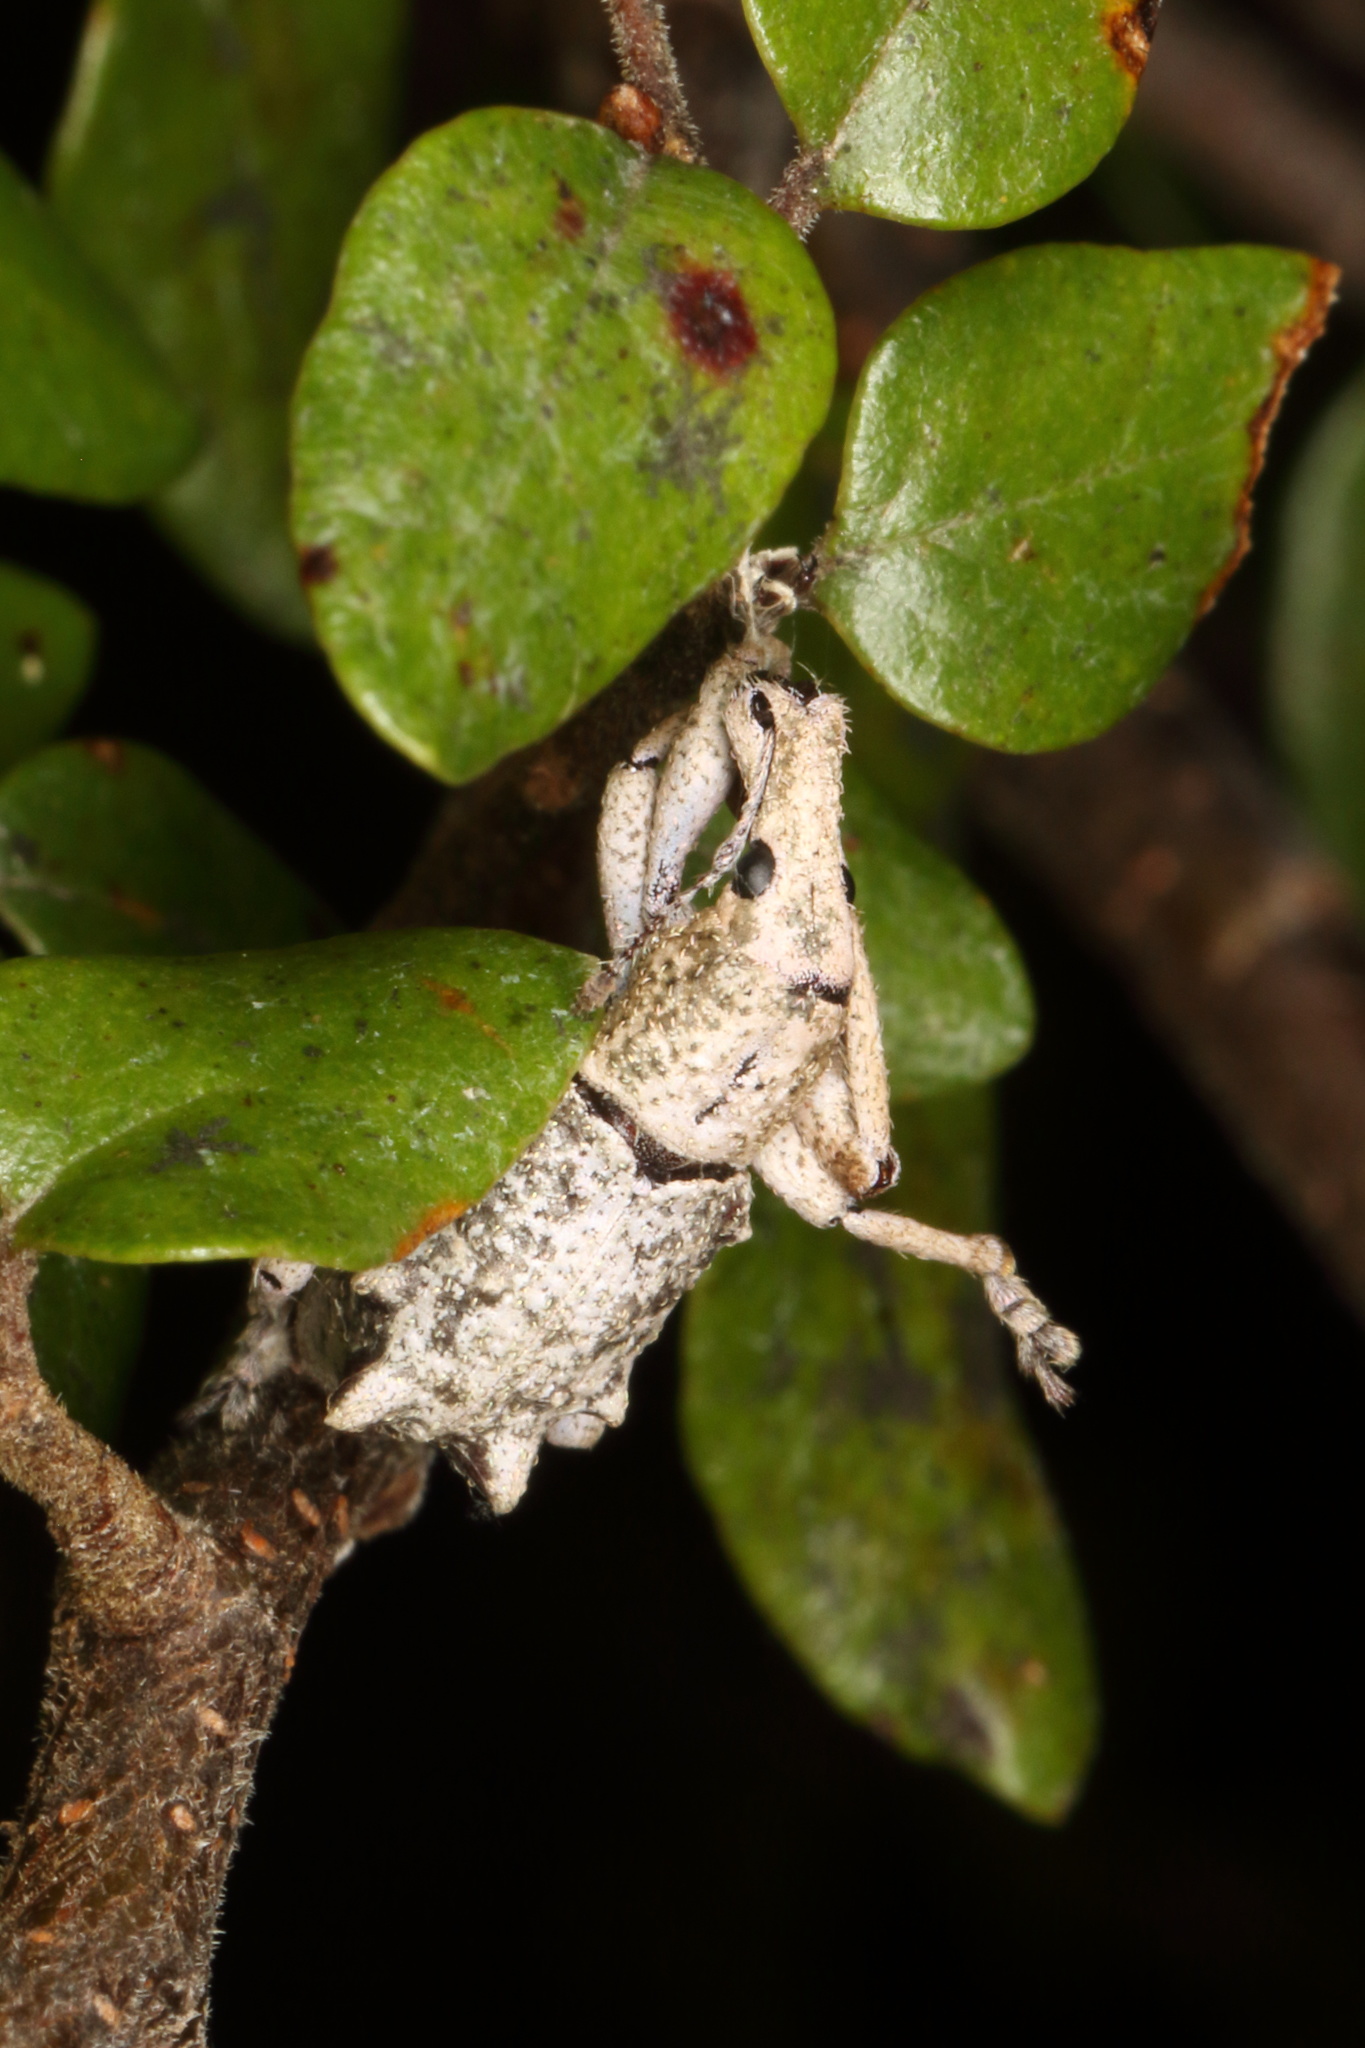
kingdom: Animalia
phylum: Arthropoda
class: Insecta
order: Coleoptera
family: Curculionidae
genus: Eurynotia
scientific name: Eurynotia
